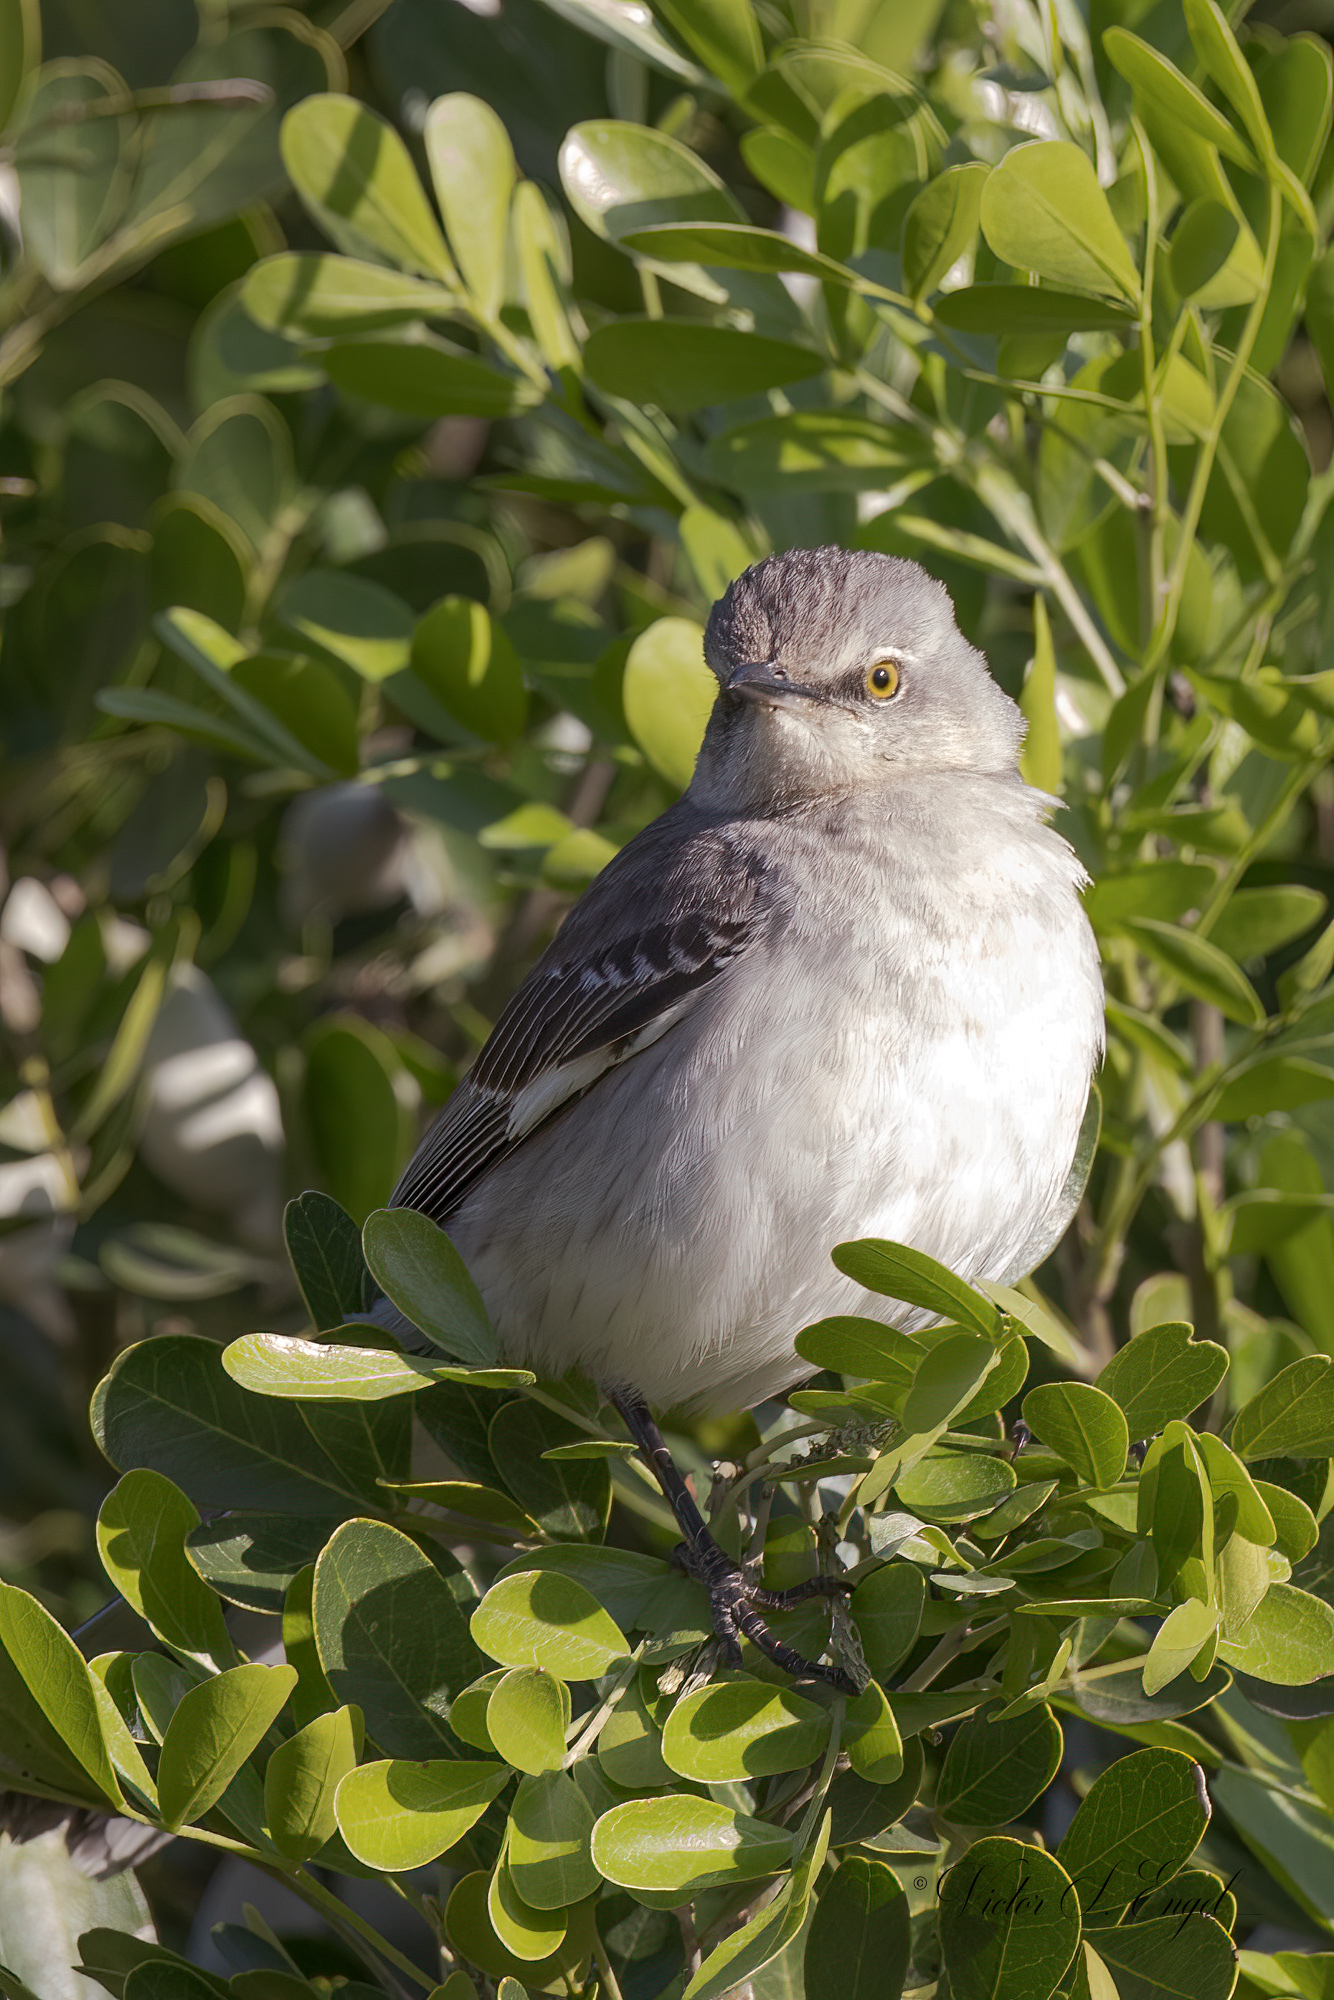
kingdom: Animalia
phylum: Chordata
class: Aves
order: Passeriformes
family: Mimidae
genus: Mimus
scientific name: Mimus polyglottos
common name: Northern mockingbird
